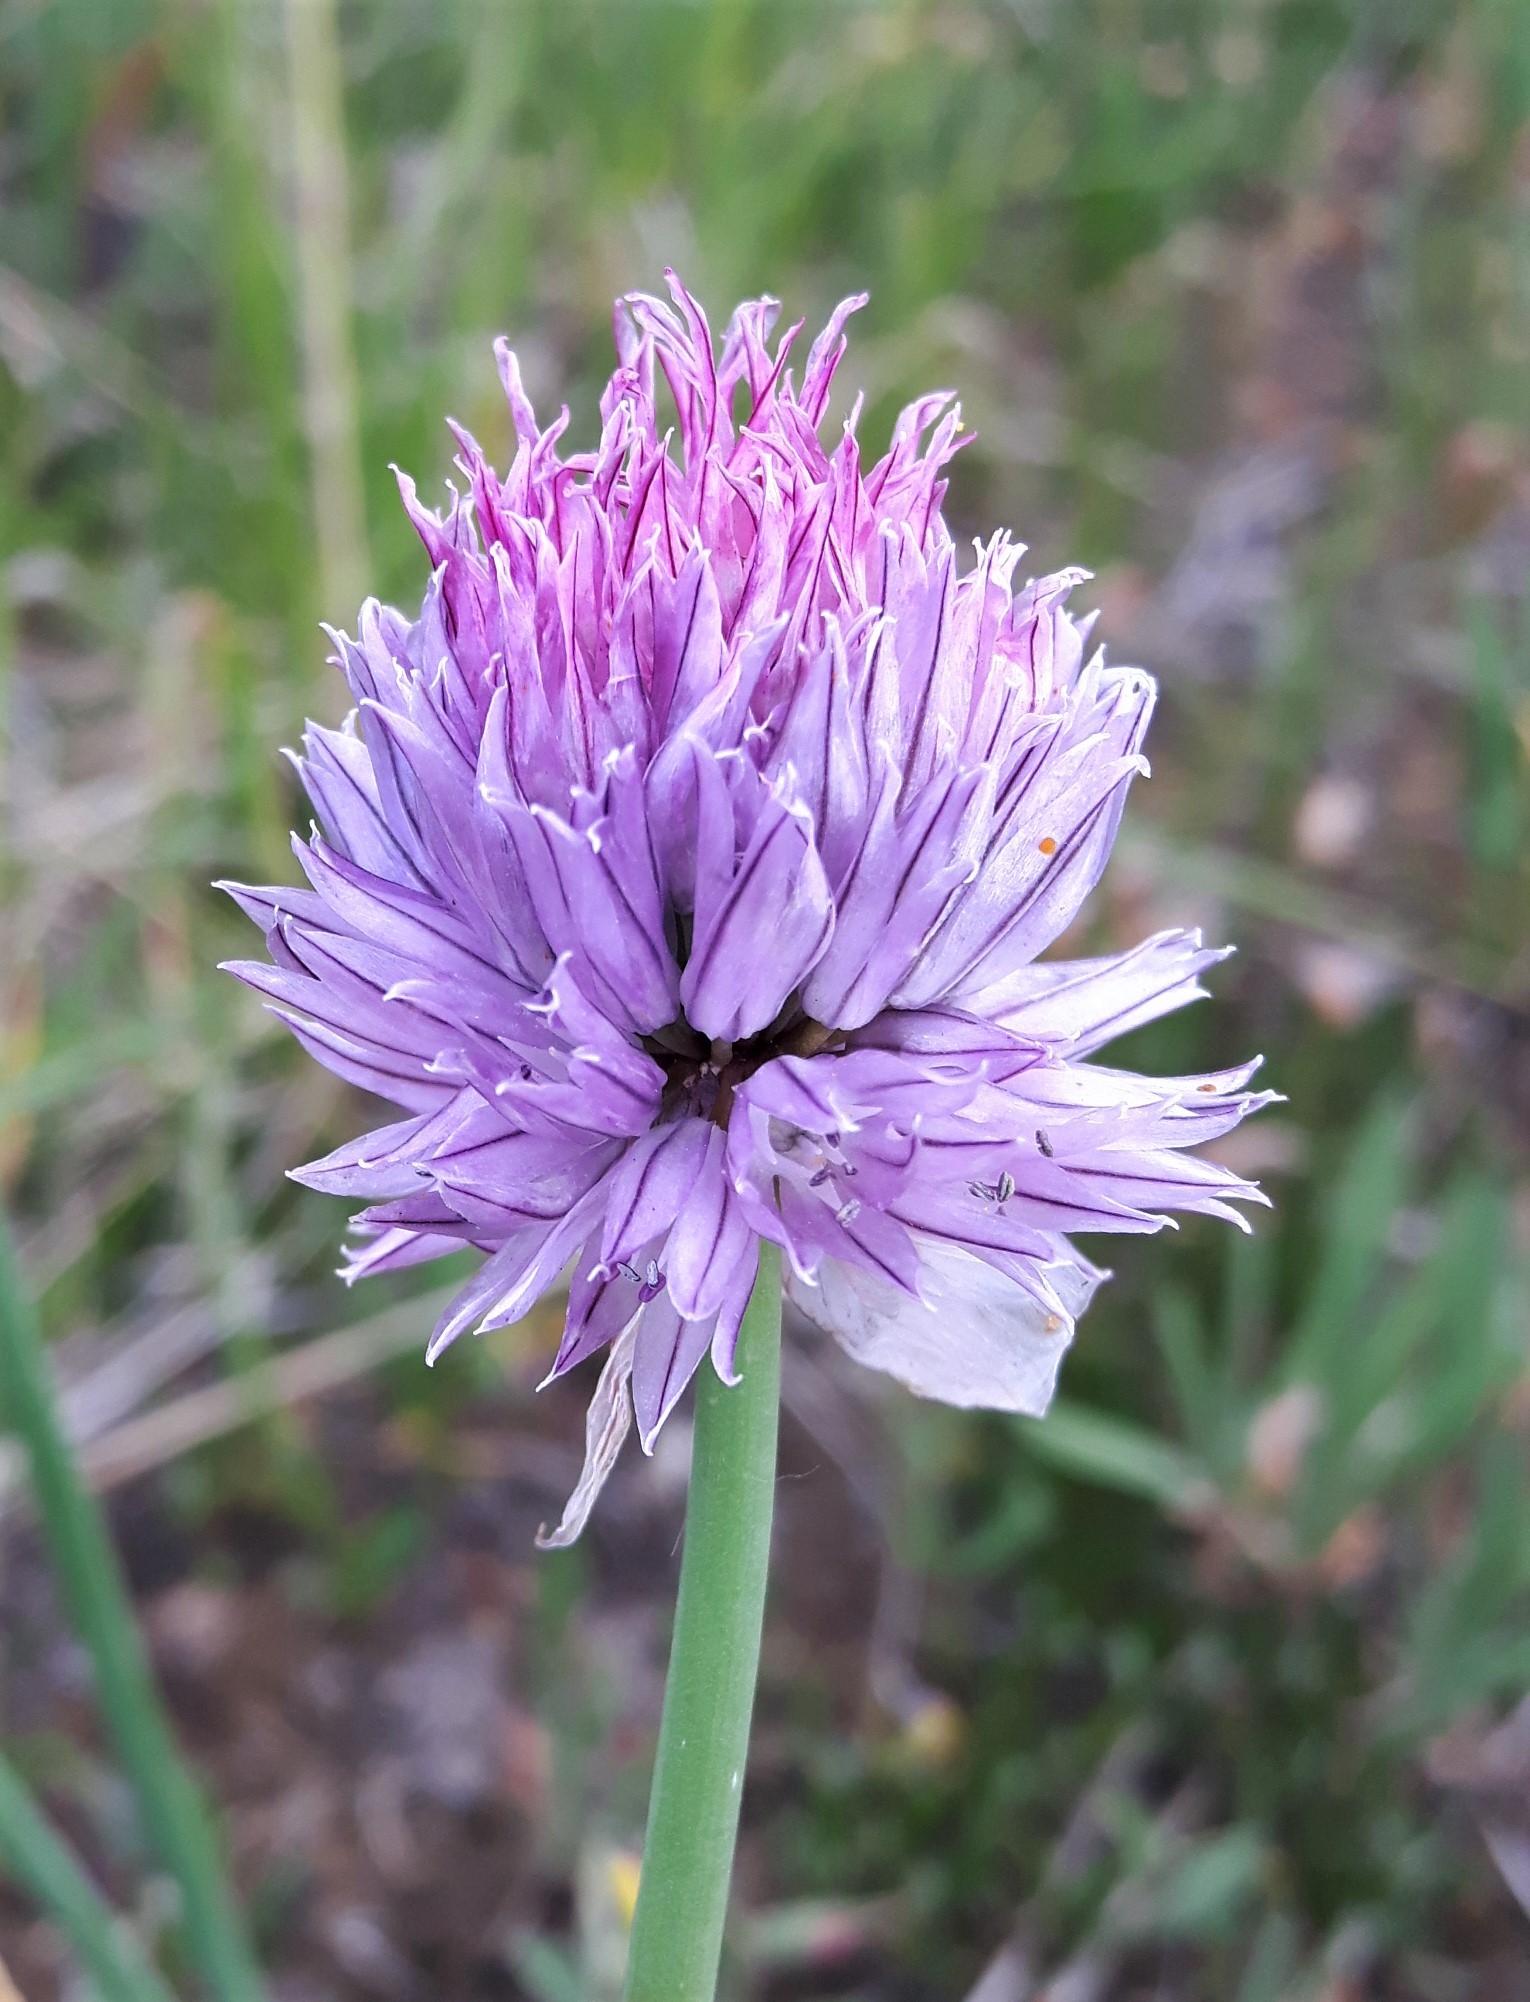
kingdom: Plantae
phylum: Tracheophyta
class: Liliopsida
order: Asparagales
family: Amaryllidaceae
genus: Allium
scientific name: Allium schoenoprasum
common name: Chives
